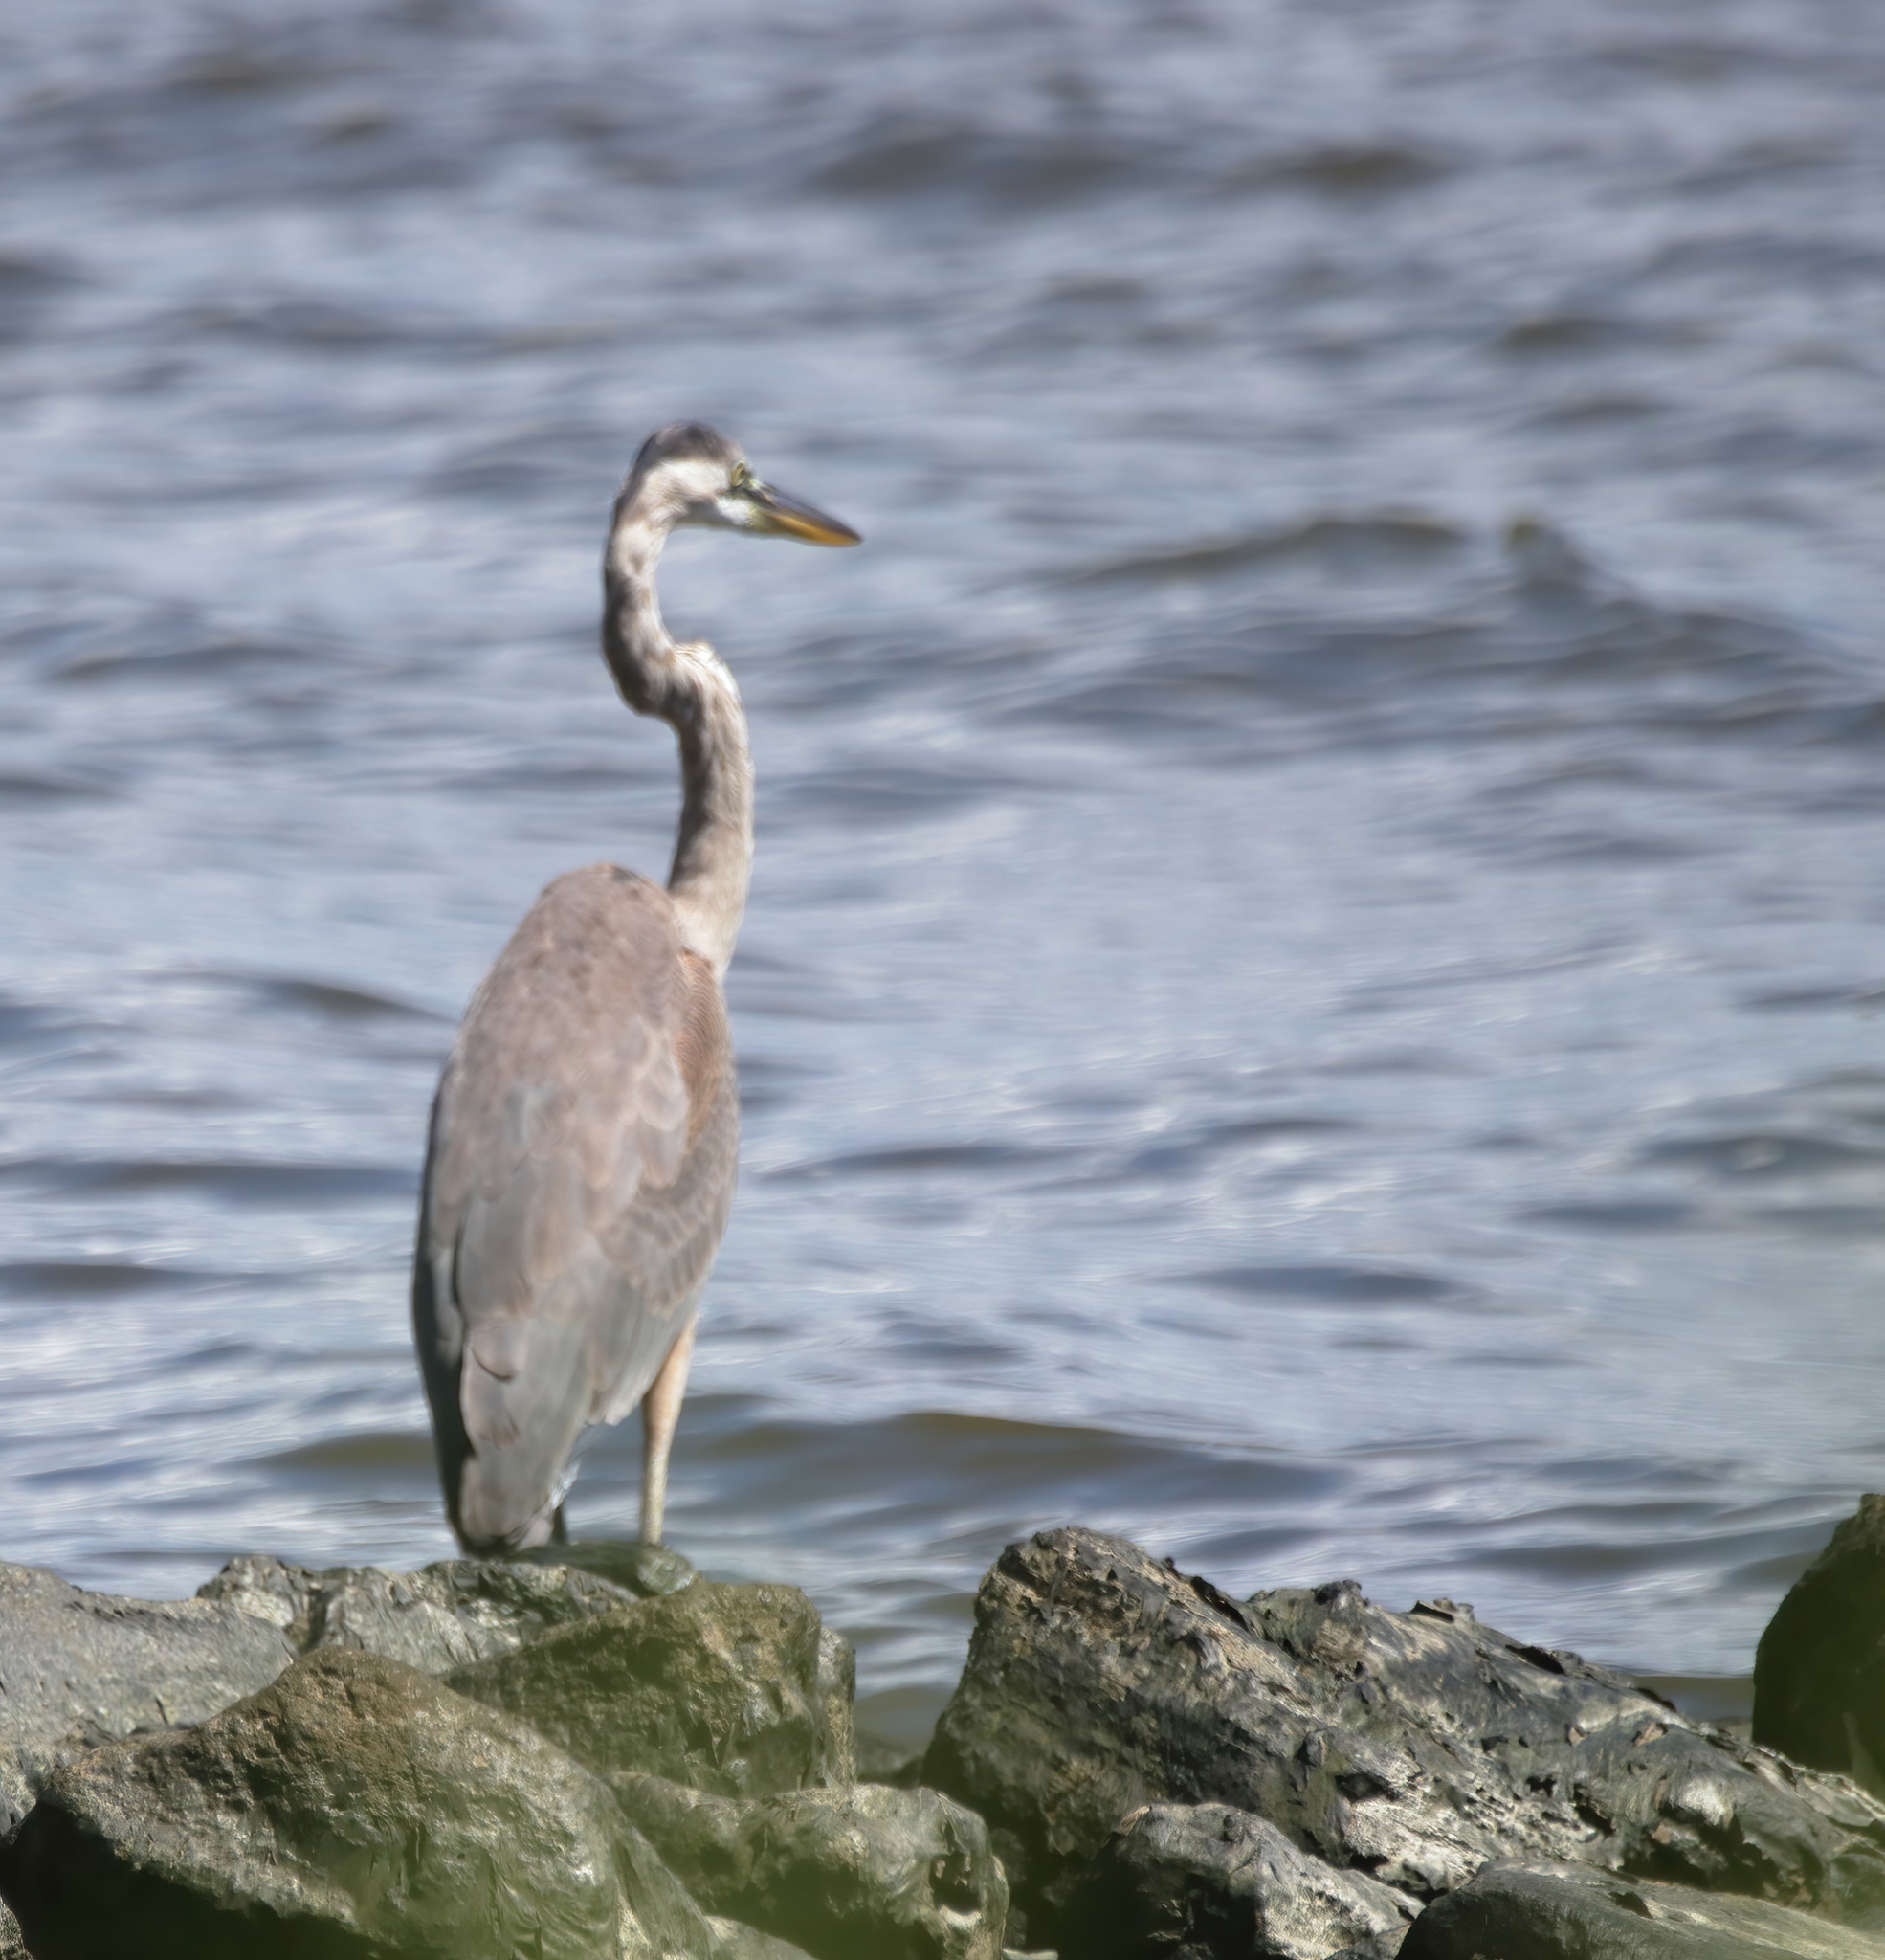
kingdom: Animalia
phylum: Chordata
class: Aves
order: Pelecaniformes
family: Ardeidae
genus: Ardea
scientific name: Ardea herodias
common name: Great blue heron
